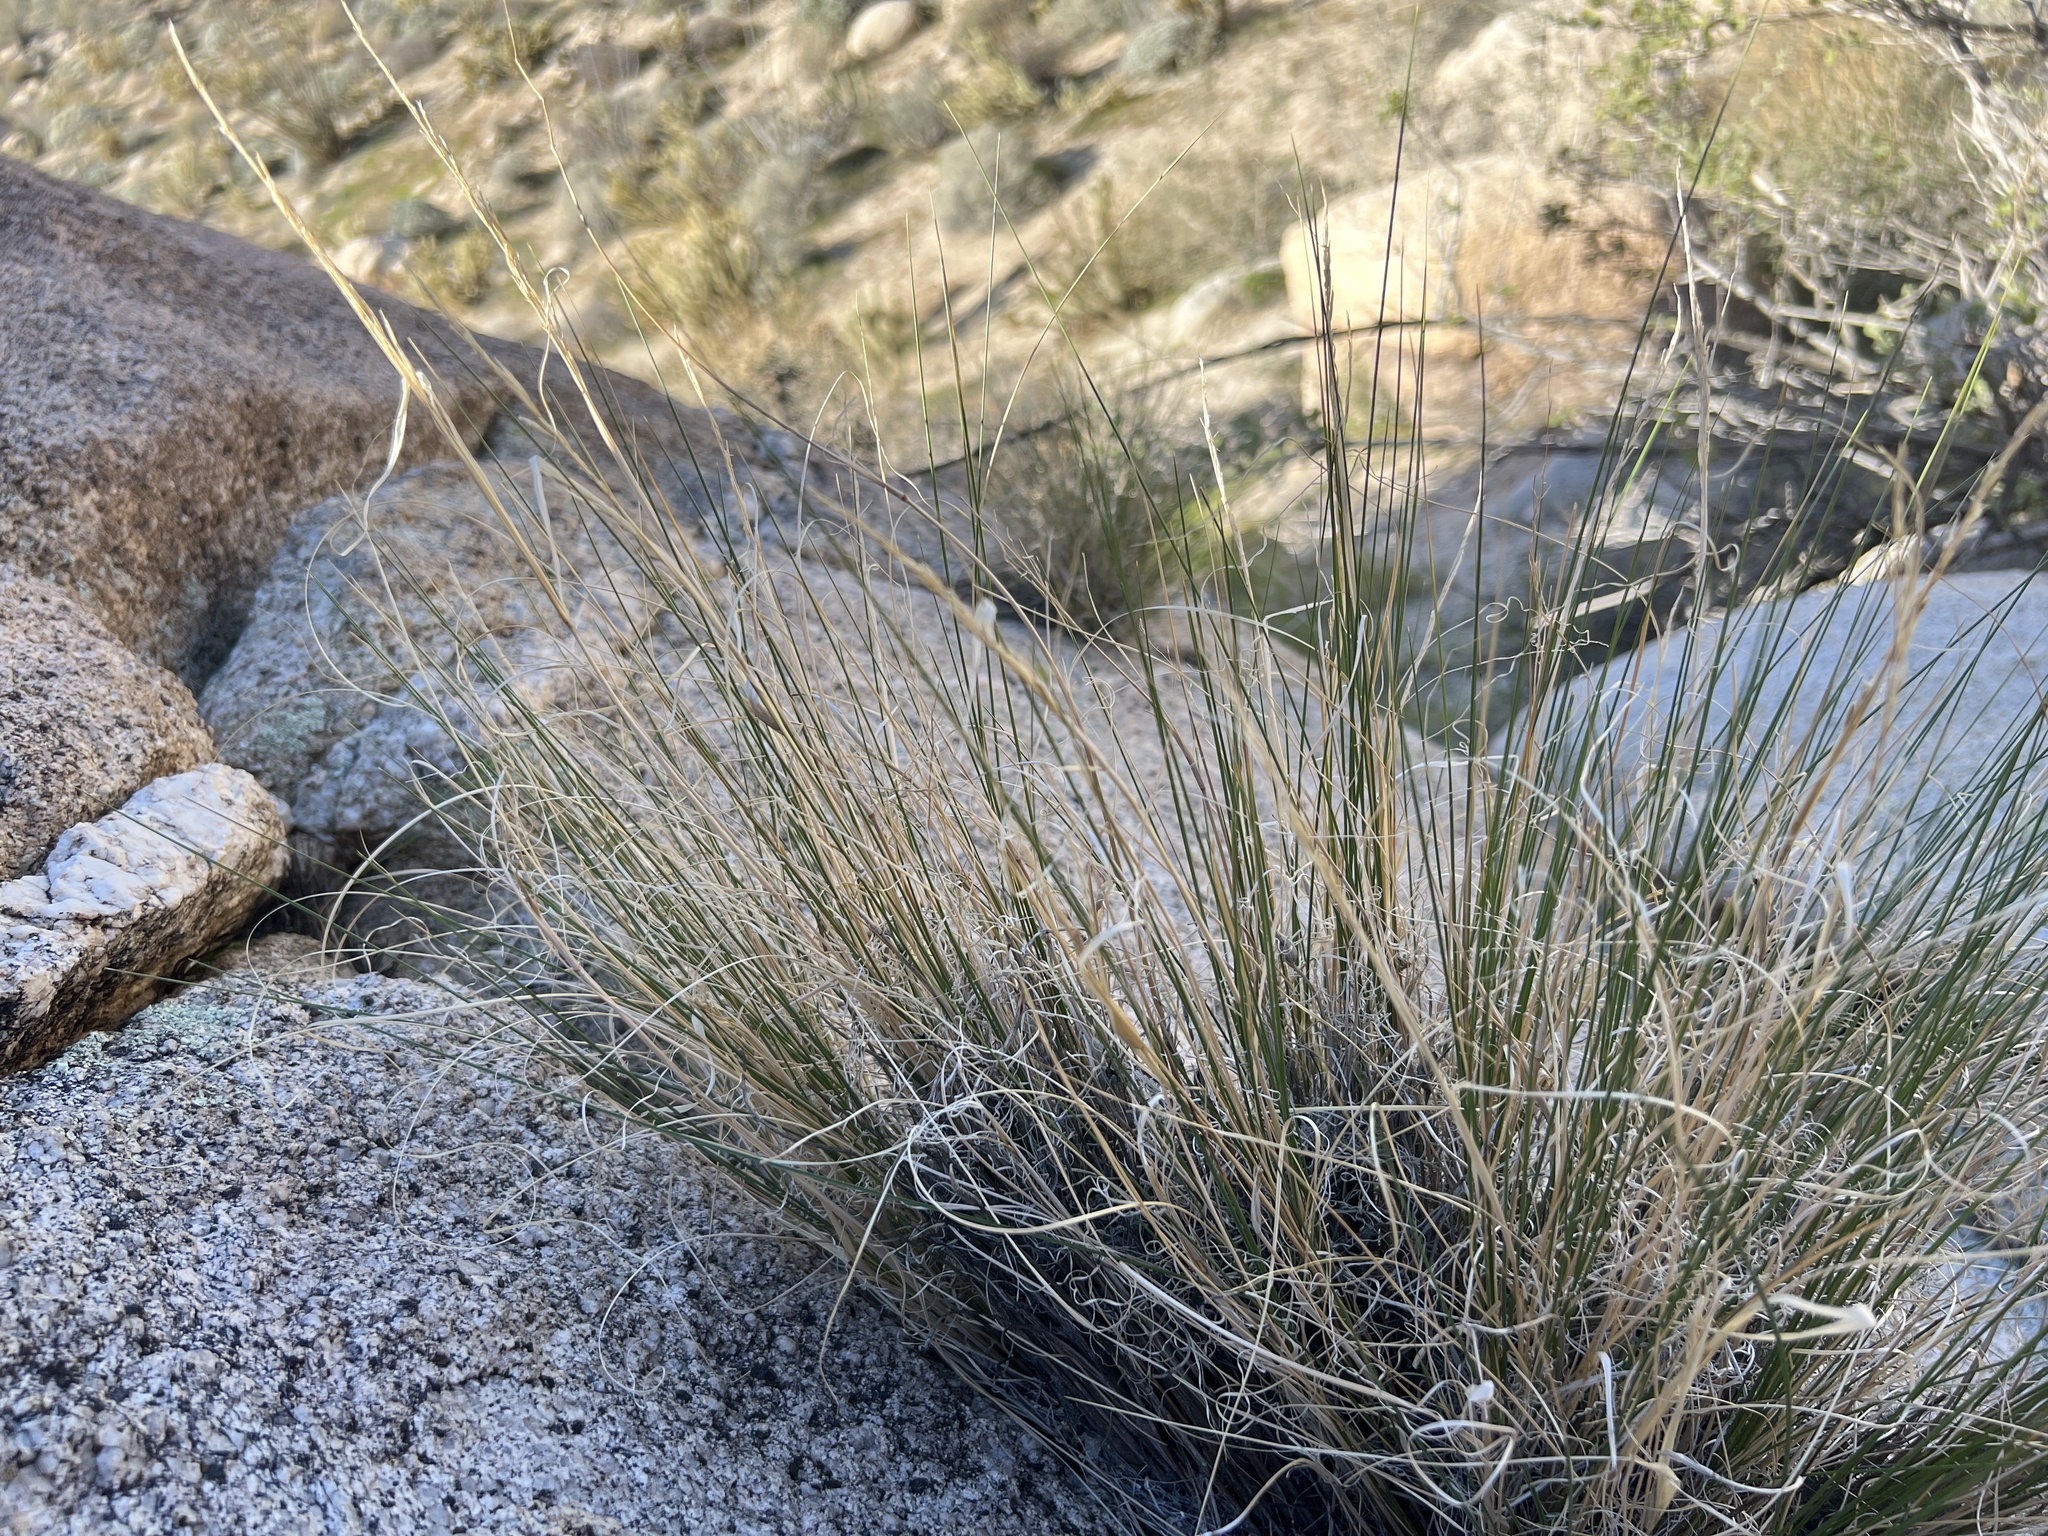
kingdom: Plantae
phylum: Tracheophyta
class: Liliopsida
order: Poales
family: Poaceae
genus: Pappostipa
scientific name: Pappostipa speciosa
